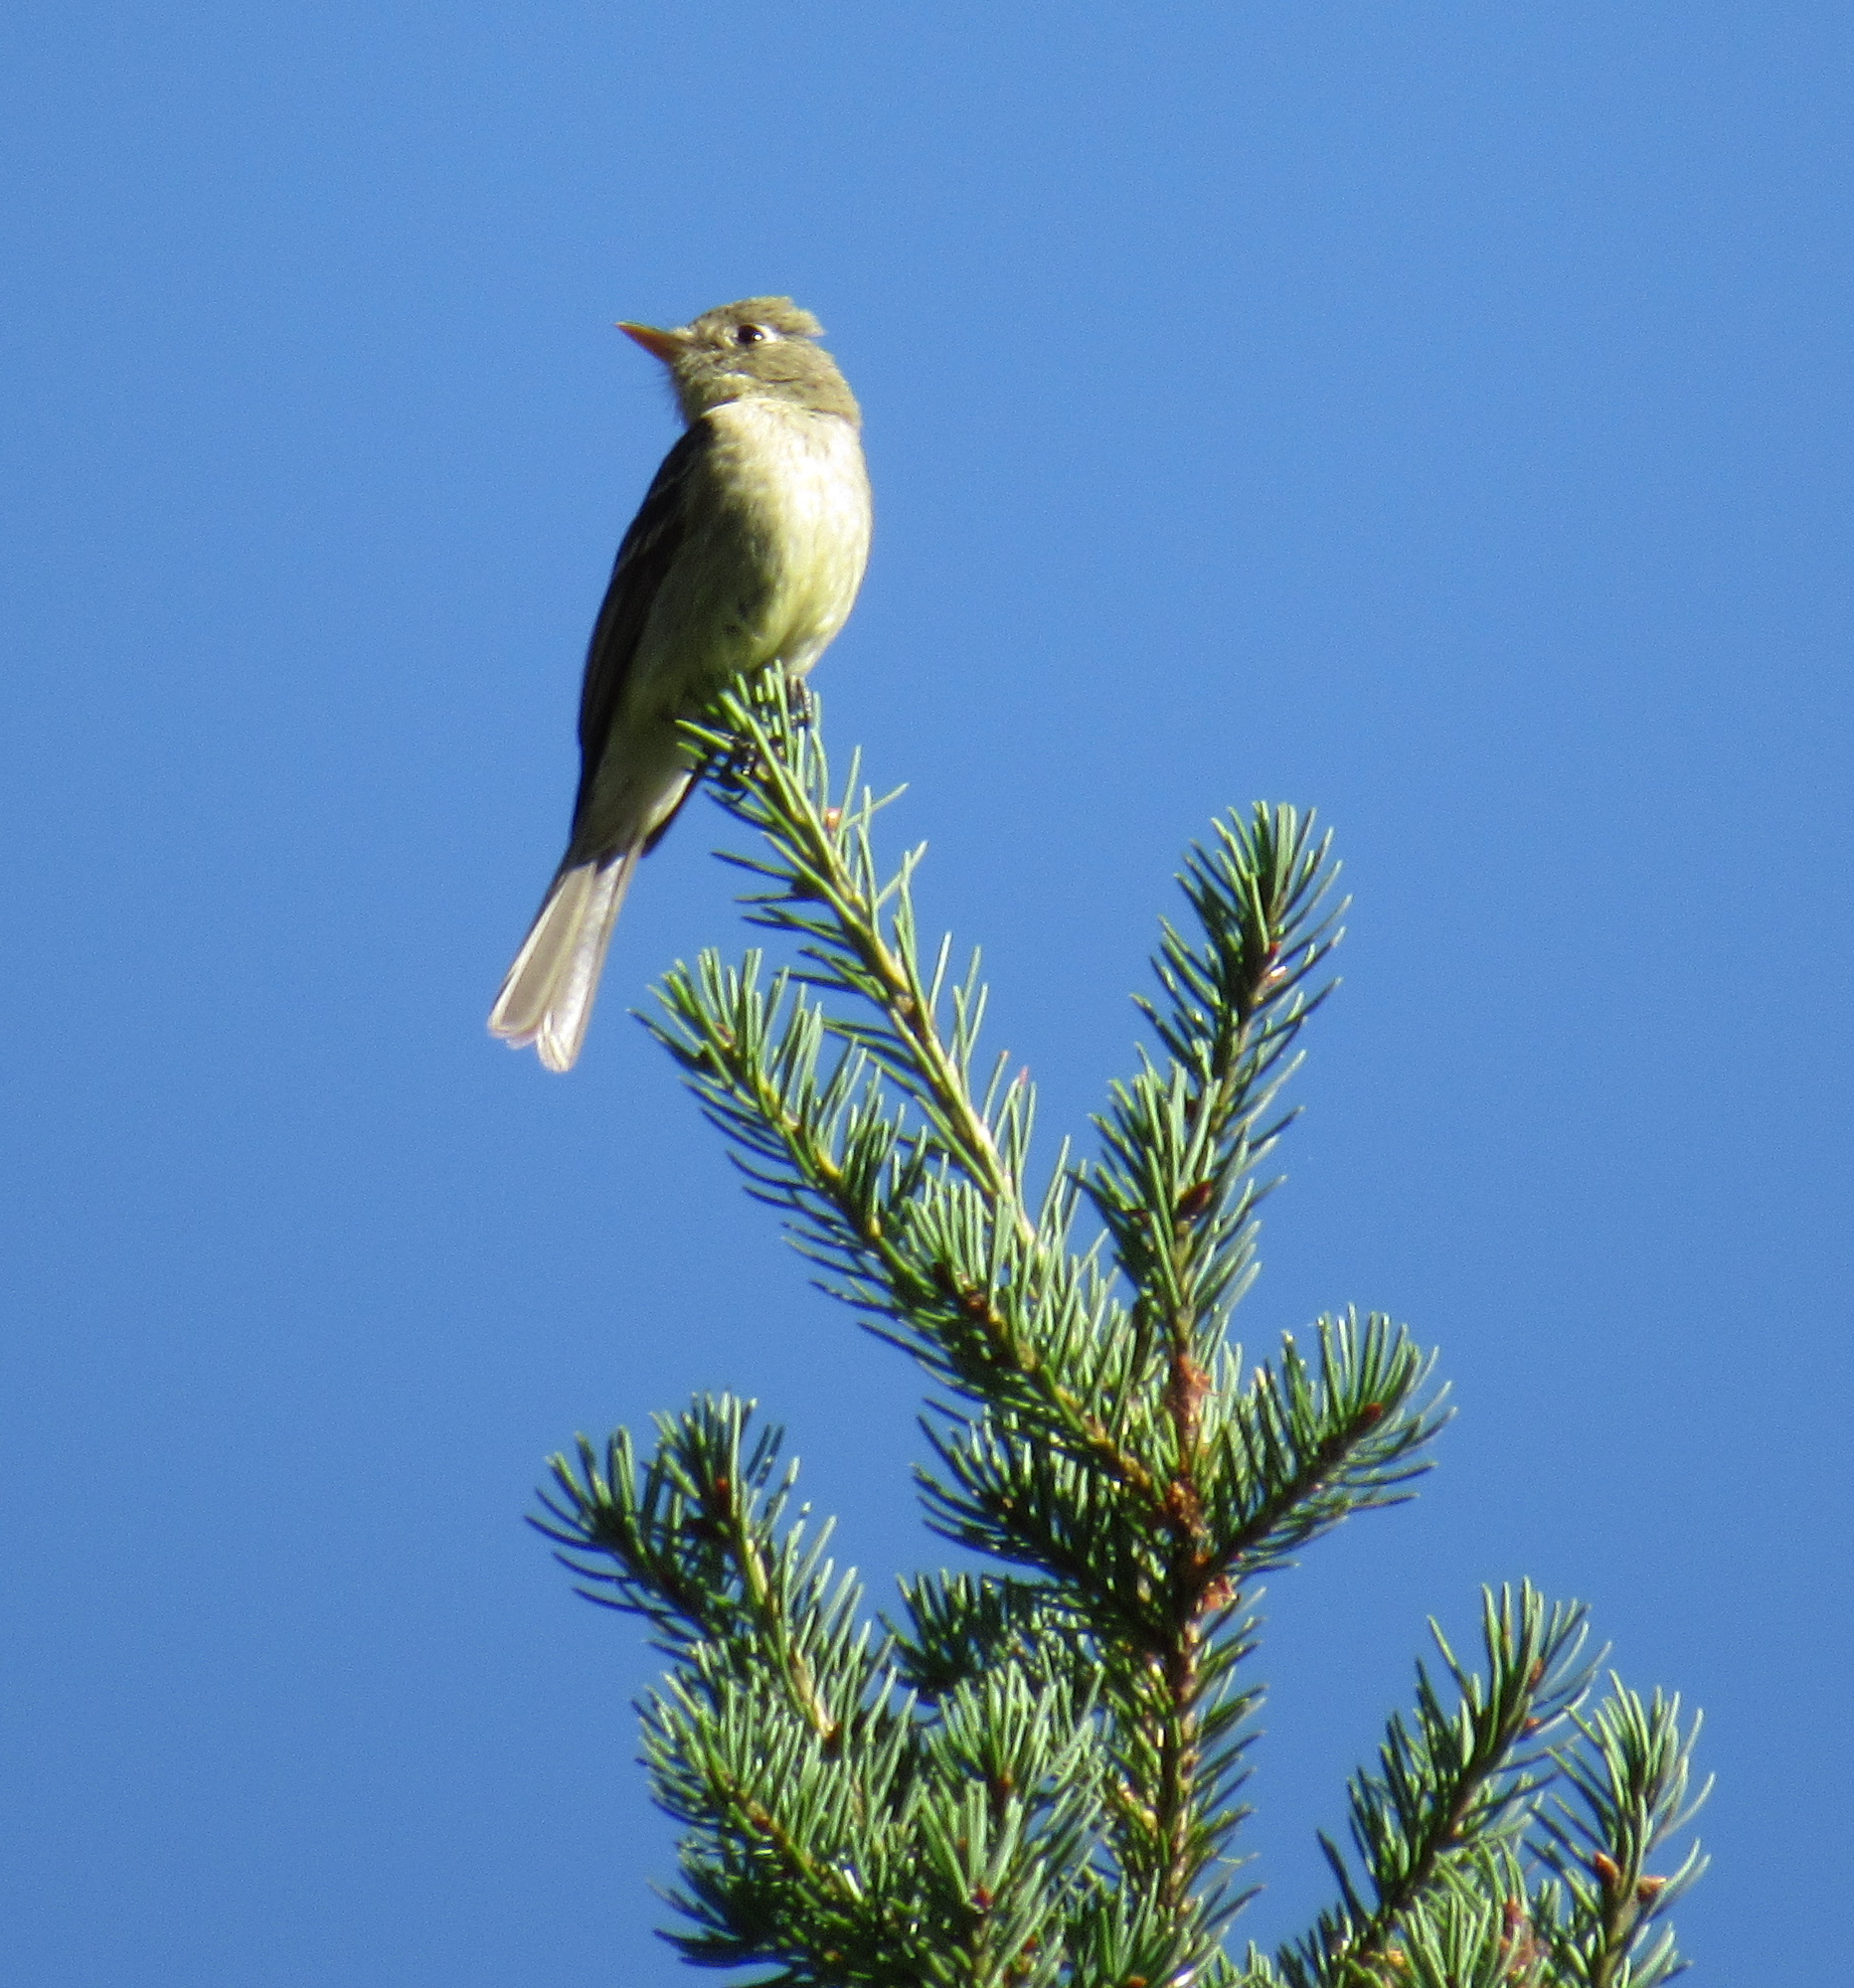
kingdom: Animalia
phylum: Chordata
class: Aves
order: Passeriformes
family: Tyrannidae
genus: Empidonax
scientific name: Empidonax difficilis
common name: Pacific-slope flycatcher
